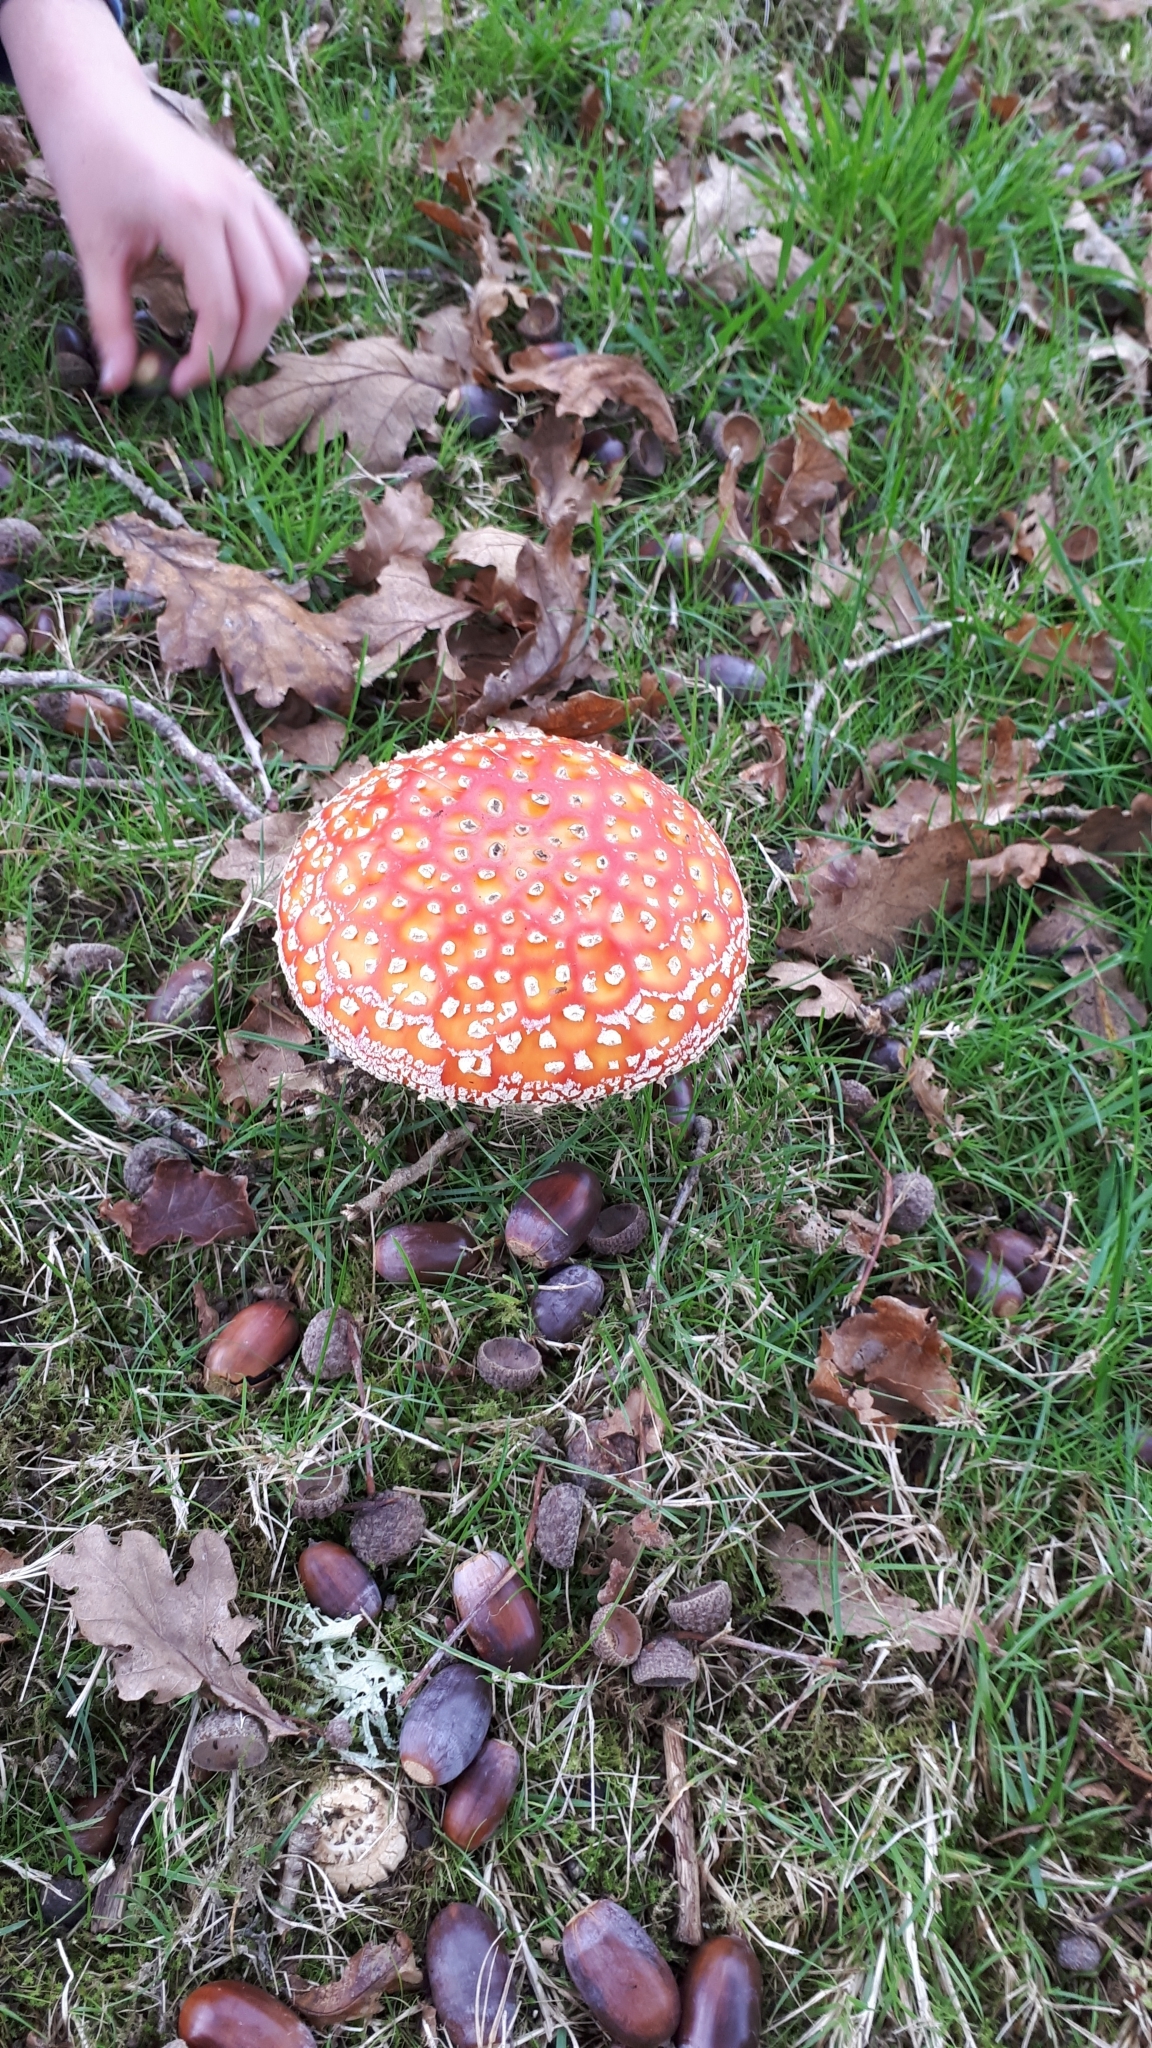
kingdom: Fungi
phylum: Basidiomycota
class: Agaricomycetes
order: Agaricales
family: Amanitaceae
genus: Amanita
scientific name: Amanita muscaria
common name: Fly agaric
